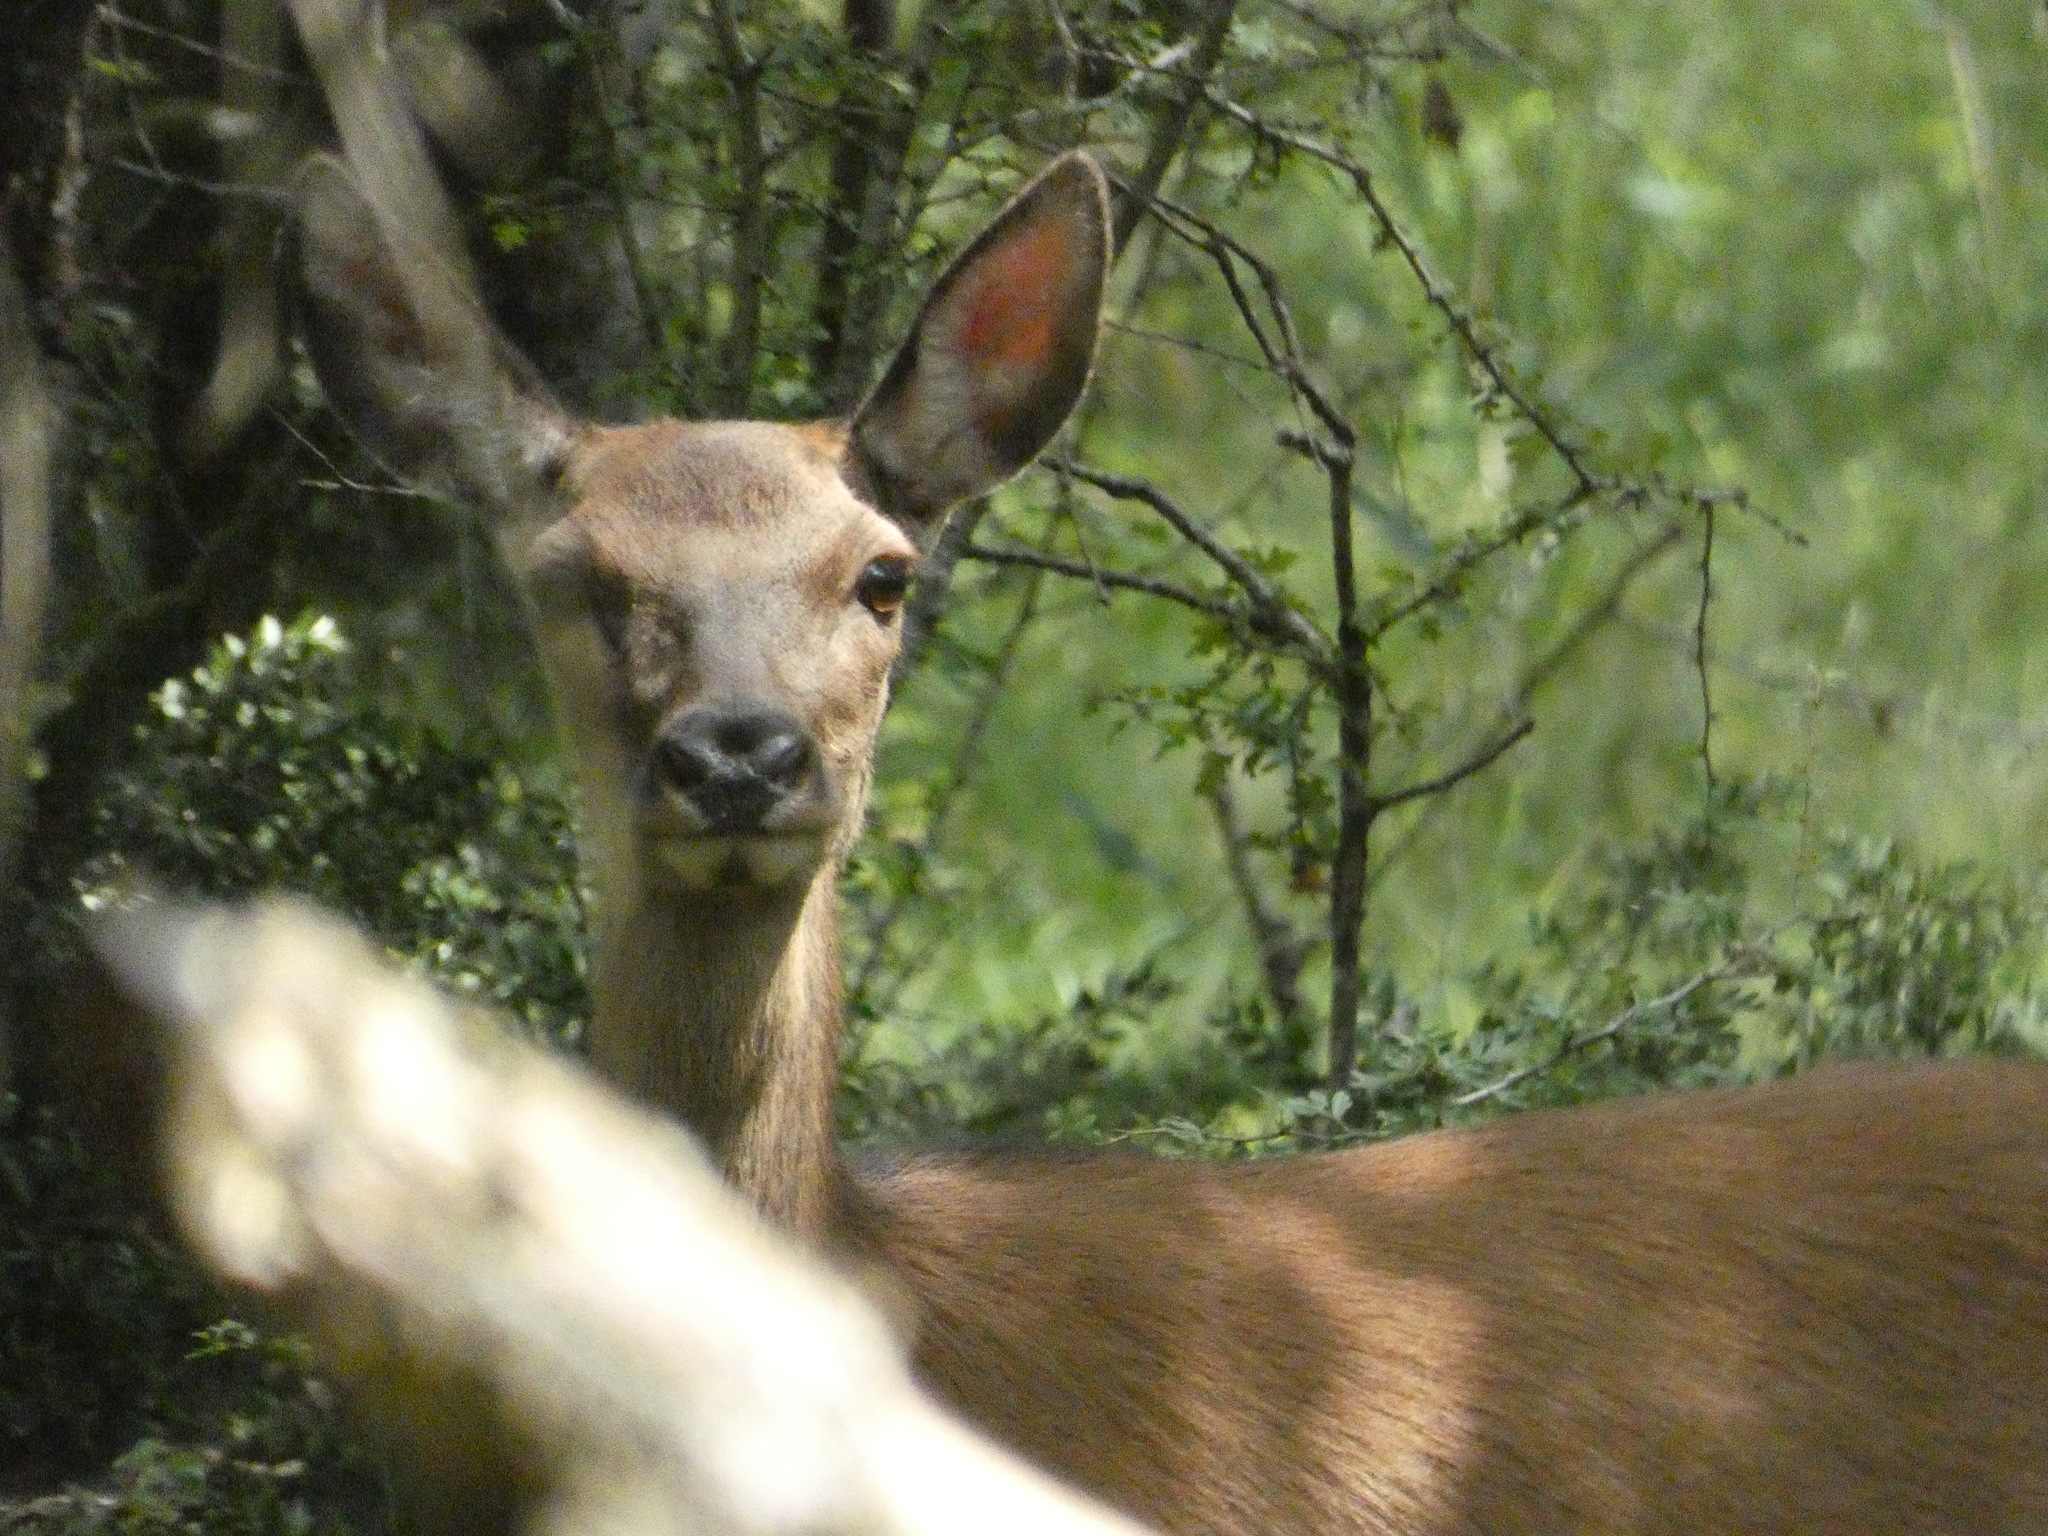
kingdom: Animalia
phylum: Chordata
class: Mammalia
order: Artiodactyla
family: Cervidae
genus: Cervus
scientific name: Cervus elaphus
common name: Red deer
